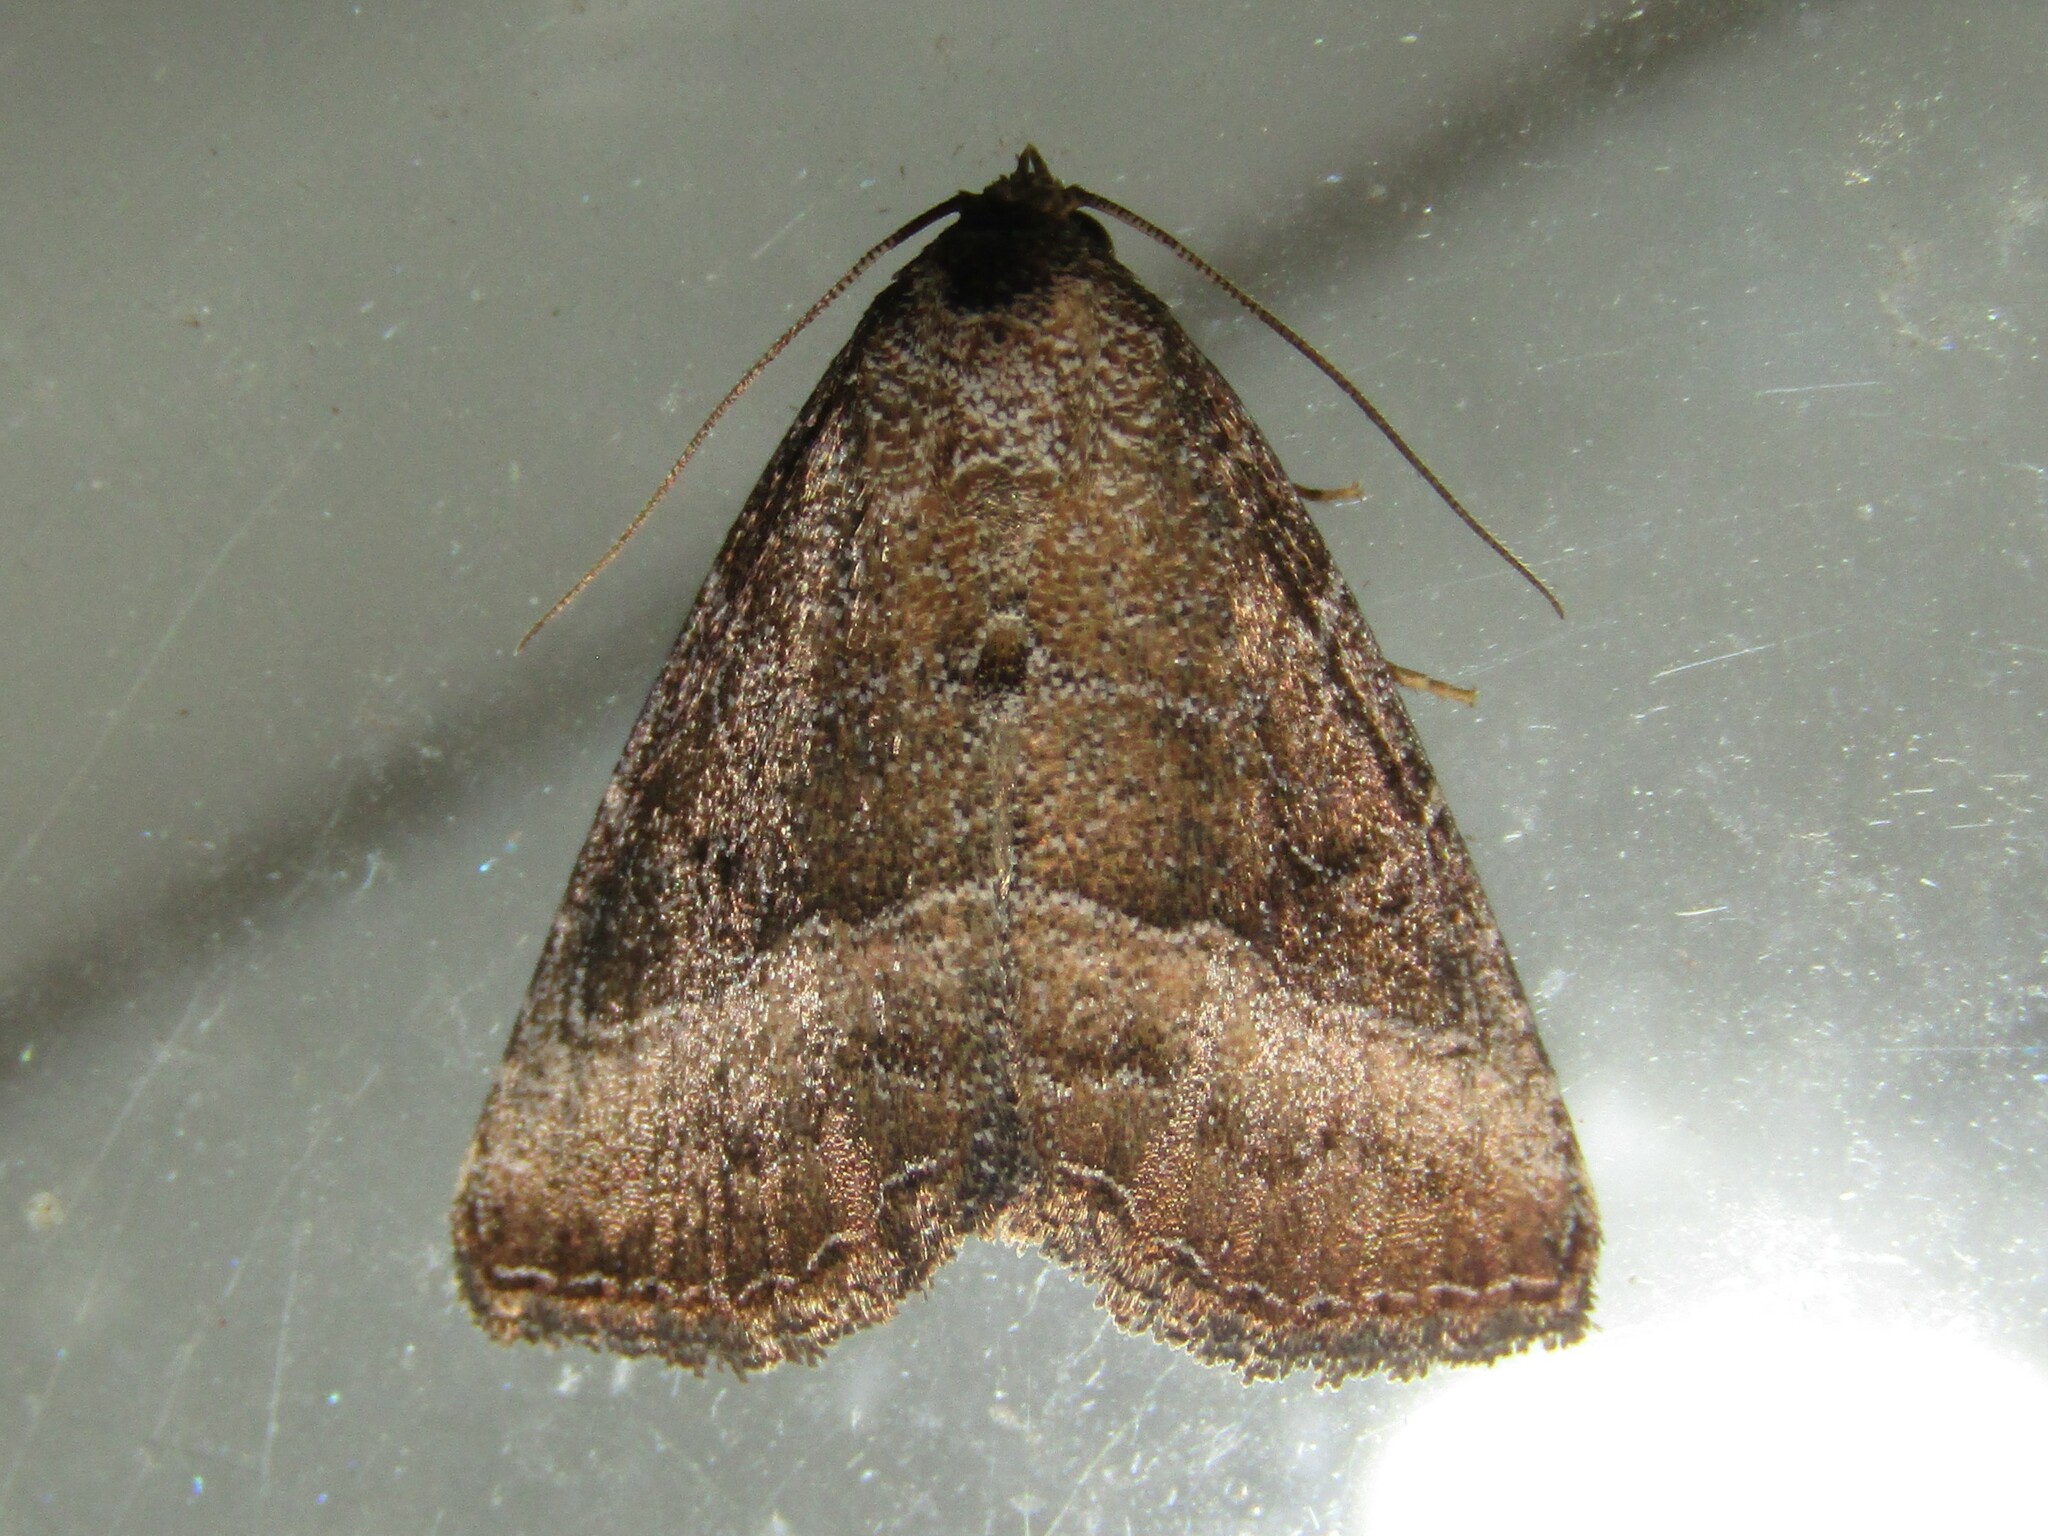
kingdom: Animalia
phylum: Arthropoda
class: Insecta
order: Lepidoptera
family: Noctuidae
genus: Ogdoconta
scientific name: Ogdoconta cinereola
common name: Common pinkband
